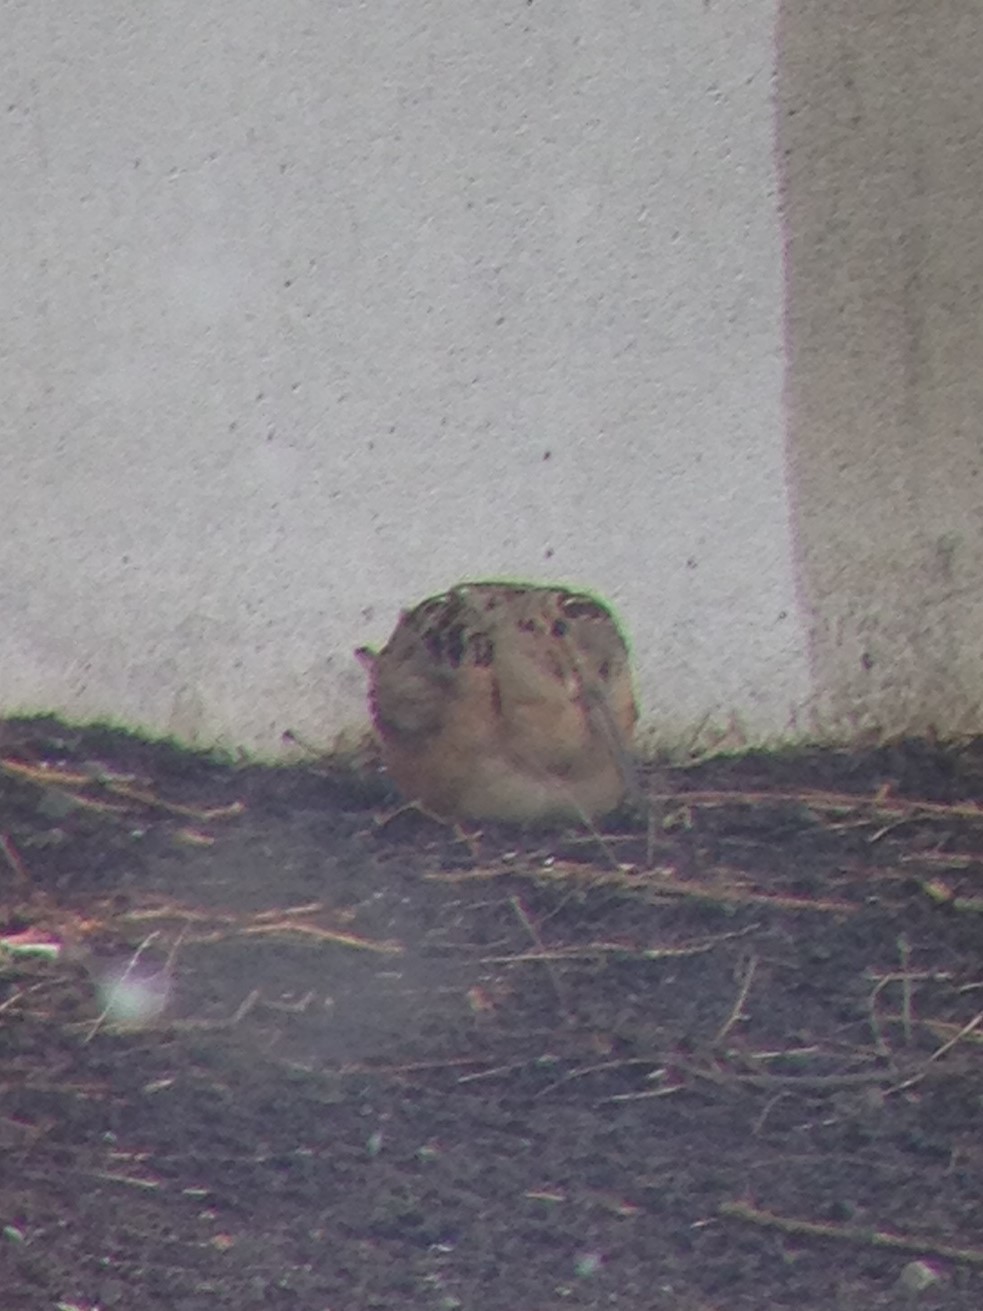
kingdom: Animalia
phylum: Chordata
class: Aves
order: Charadriiformes
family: Scolopacidae
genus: Scolopax
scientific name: Scolopax minor
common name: American woodcock
